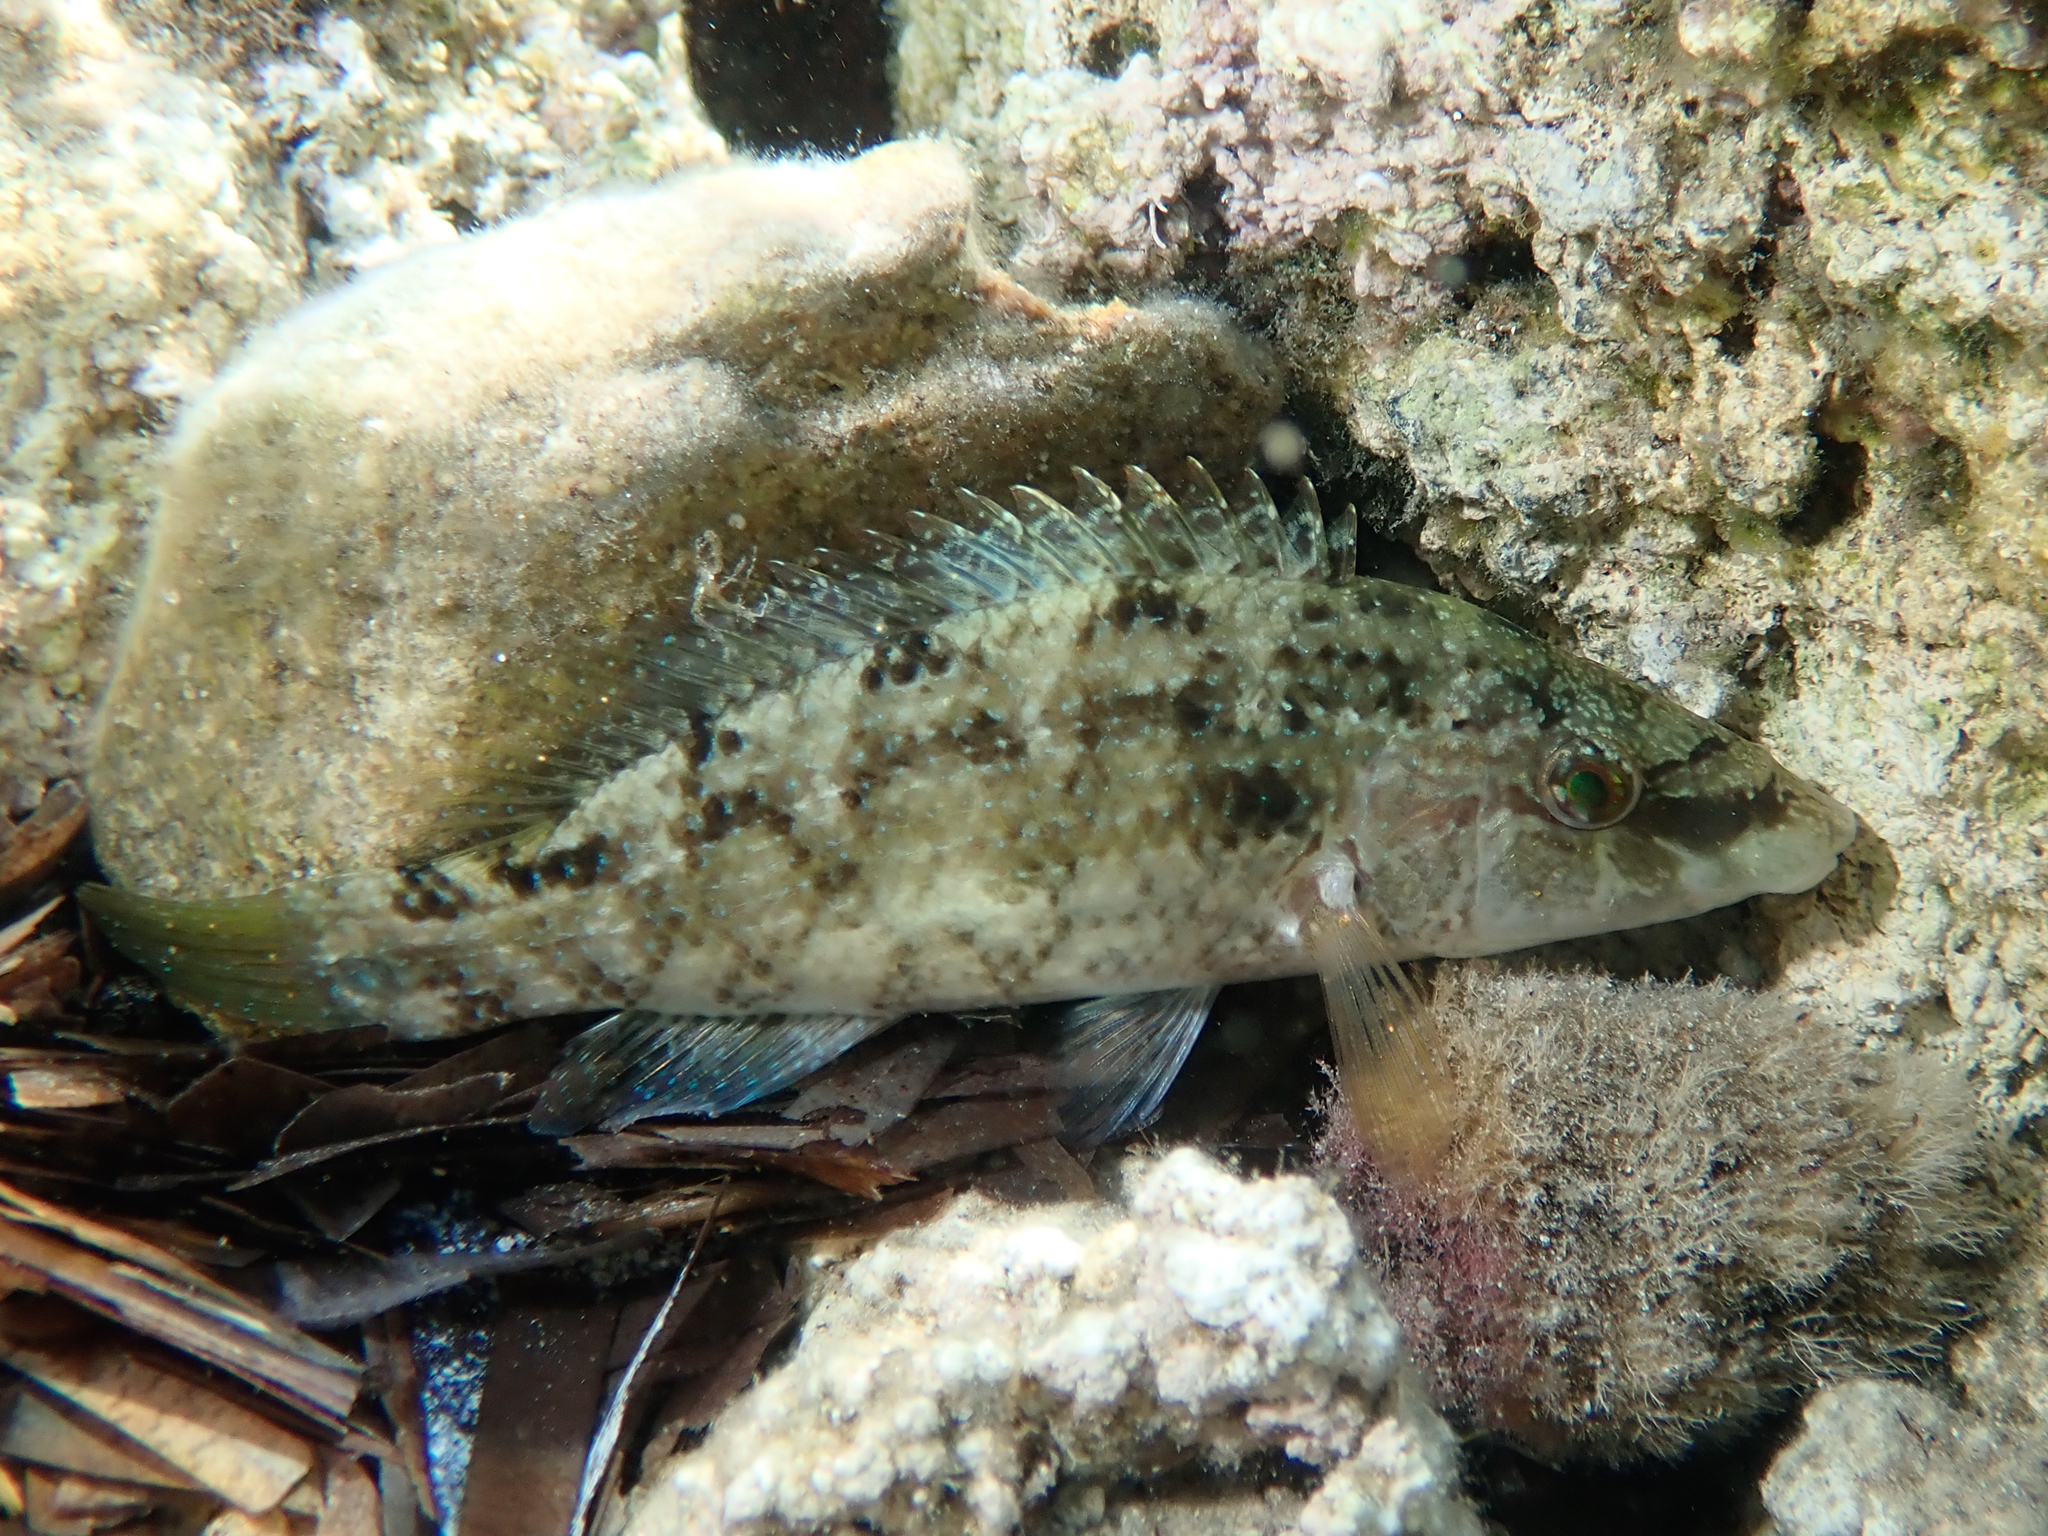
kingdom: Animalia
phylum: Chordata
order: Perciformes
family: Labridae
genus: Symphodus
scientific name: Symphodus tinca
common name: Peacock wrasse
